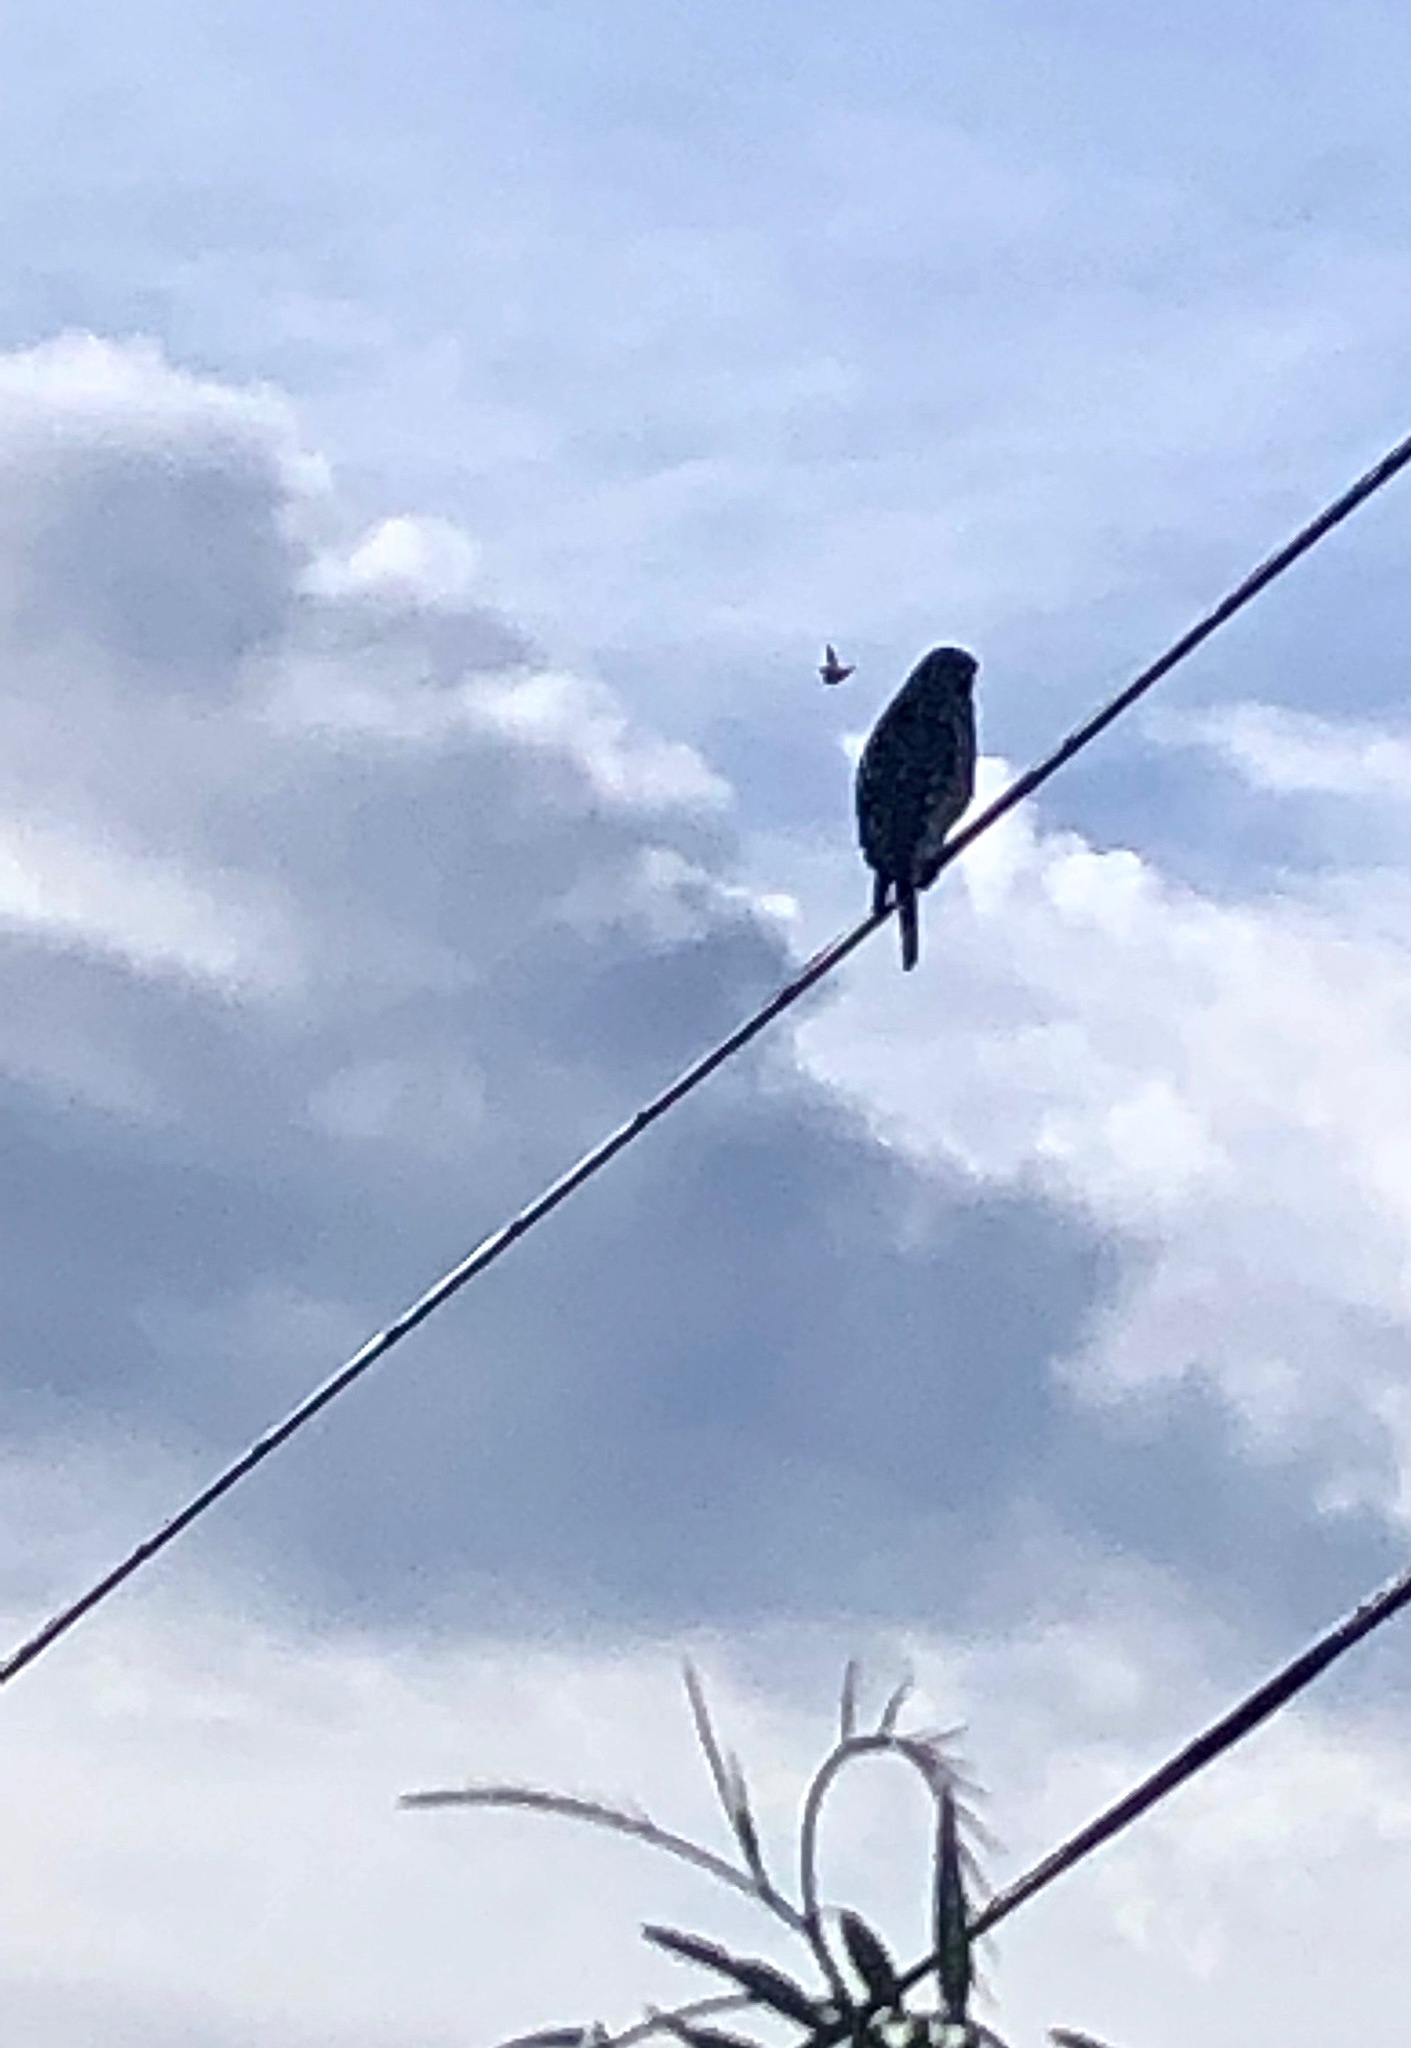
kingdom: Animalia
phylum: Chordata
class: Aves
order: Accipitriformes
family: Accipitridae
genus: Buteo
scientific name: Buteo lineatus
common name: Red-shouldered hawk
